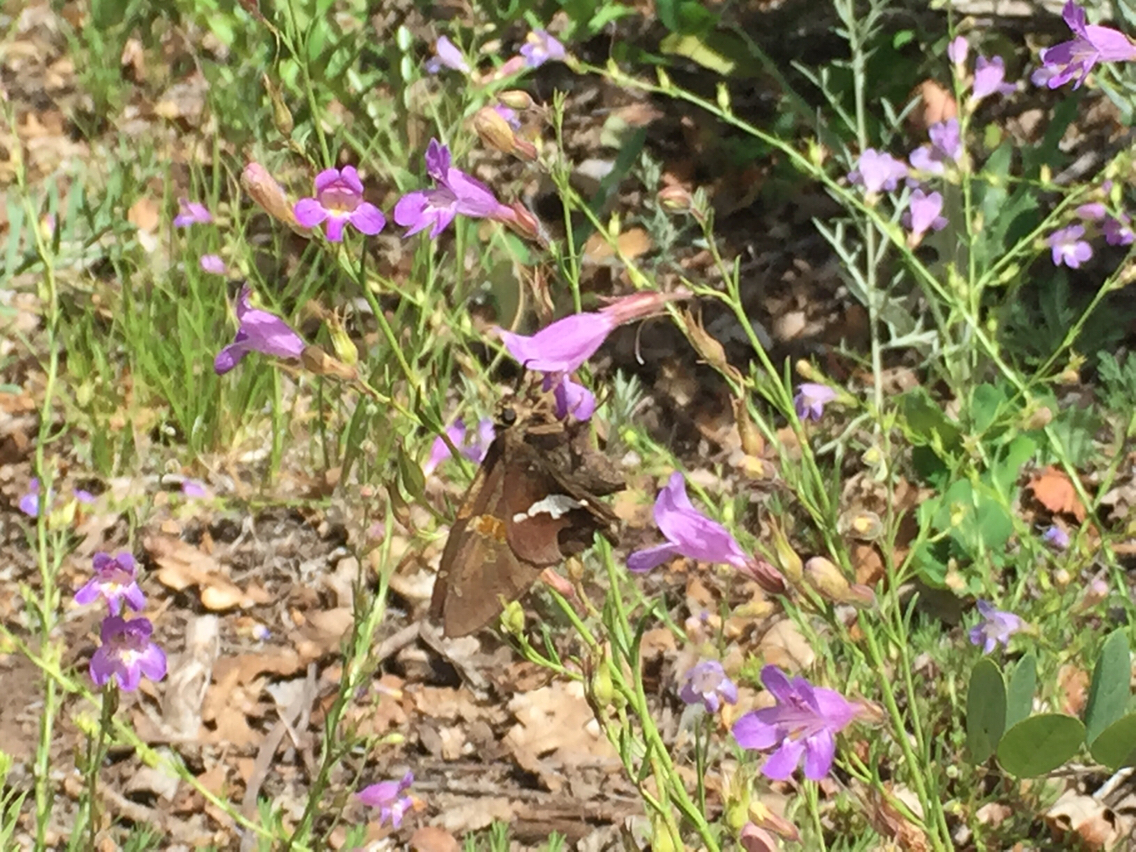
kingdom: Animalia
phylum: Arthropoda
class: Insecta
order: Lepidoptera
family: Hesperiidae
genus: Epargyreus
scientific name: Epargyreus clarus
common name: Silver-spotted skipper
